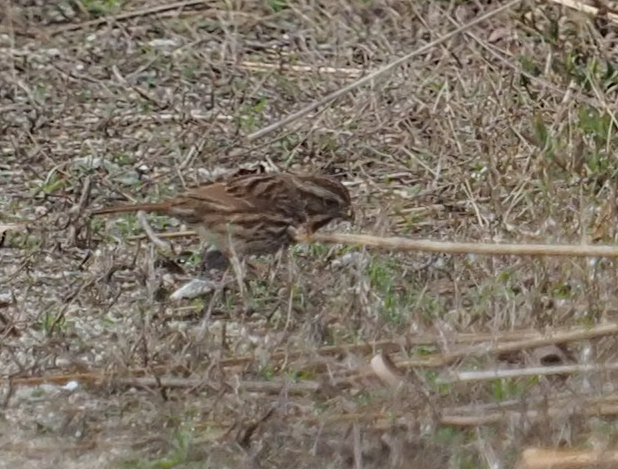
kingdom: Animalia
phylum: Chordata
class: Aves
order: Passeriformes
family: Passerellidae
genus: Melospiza
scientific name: Melospiza melodia
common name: Song sparrow
